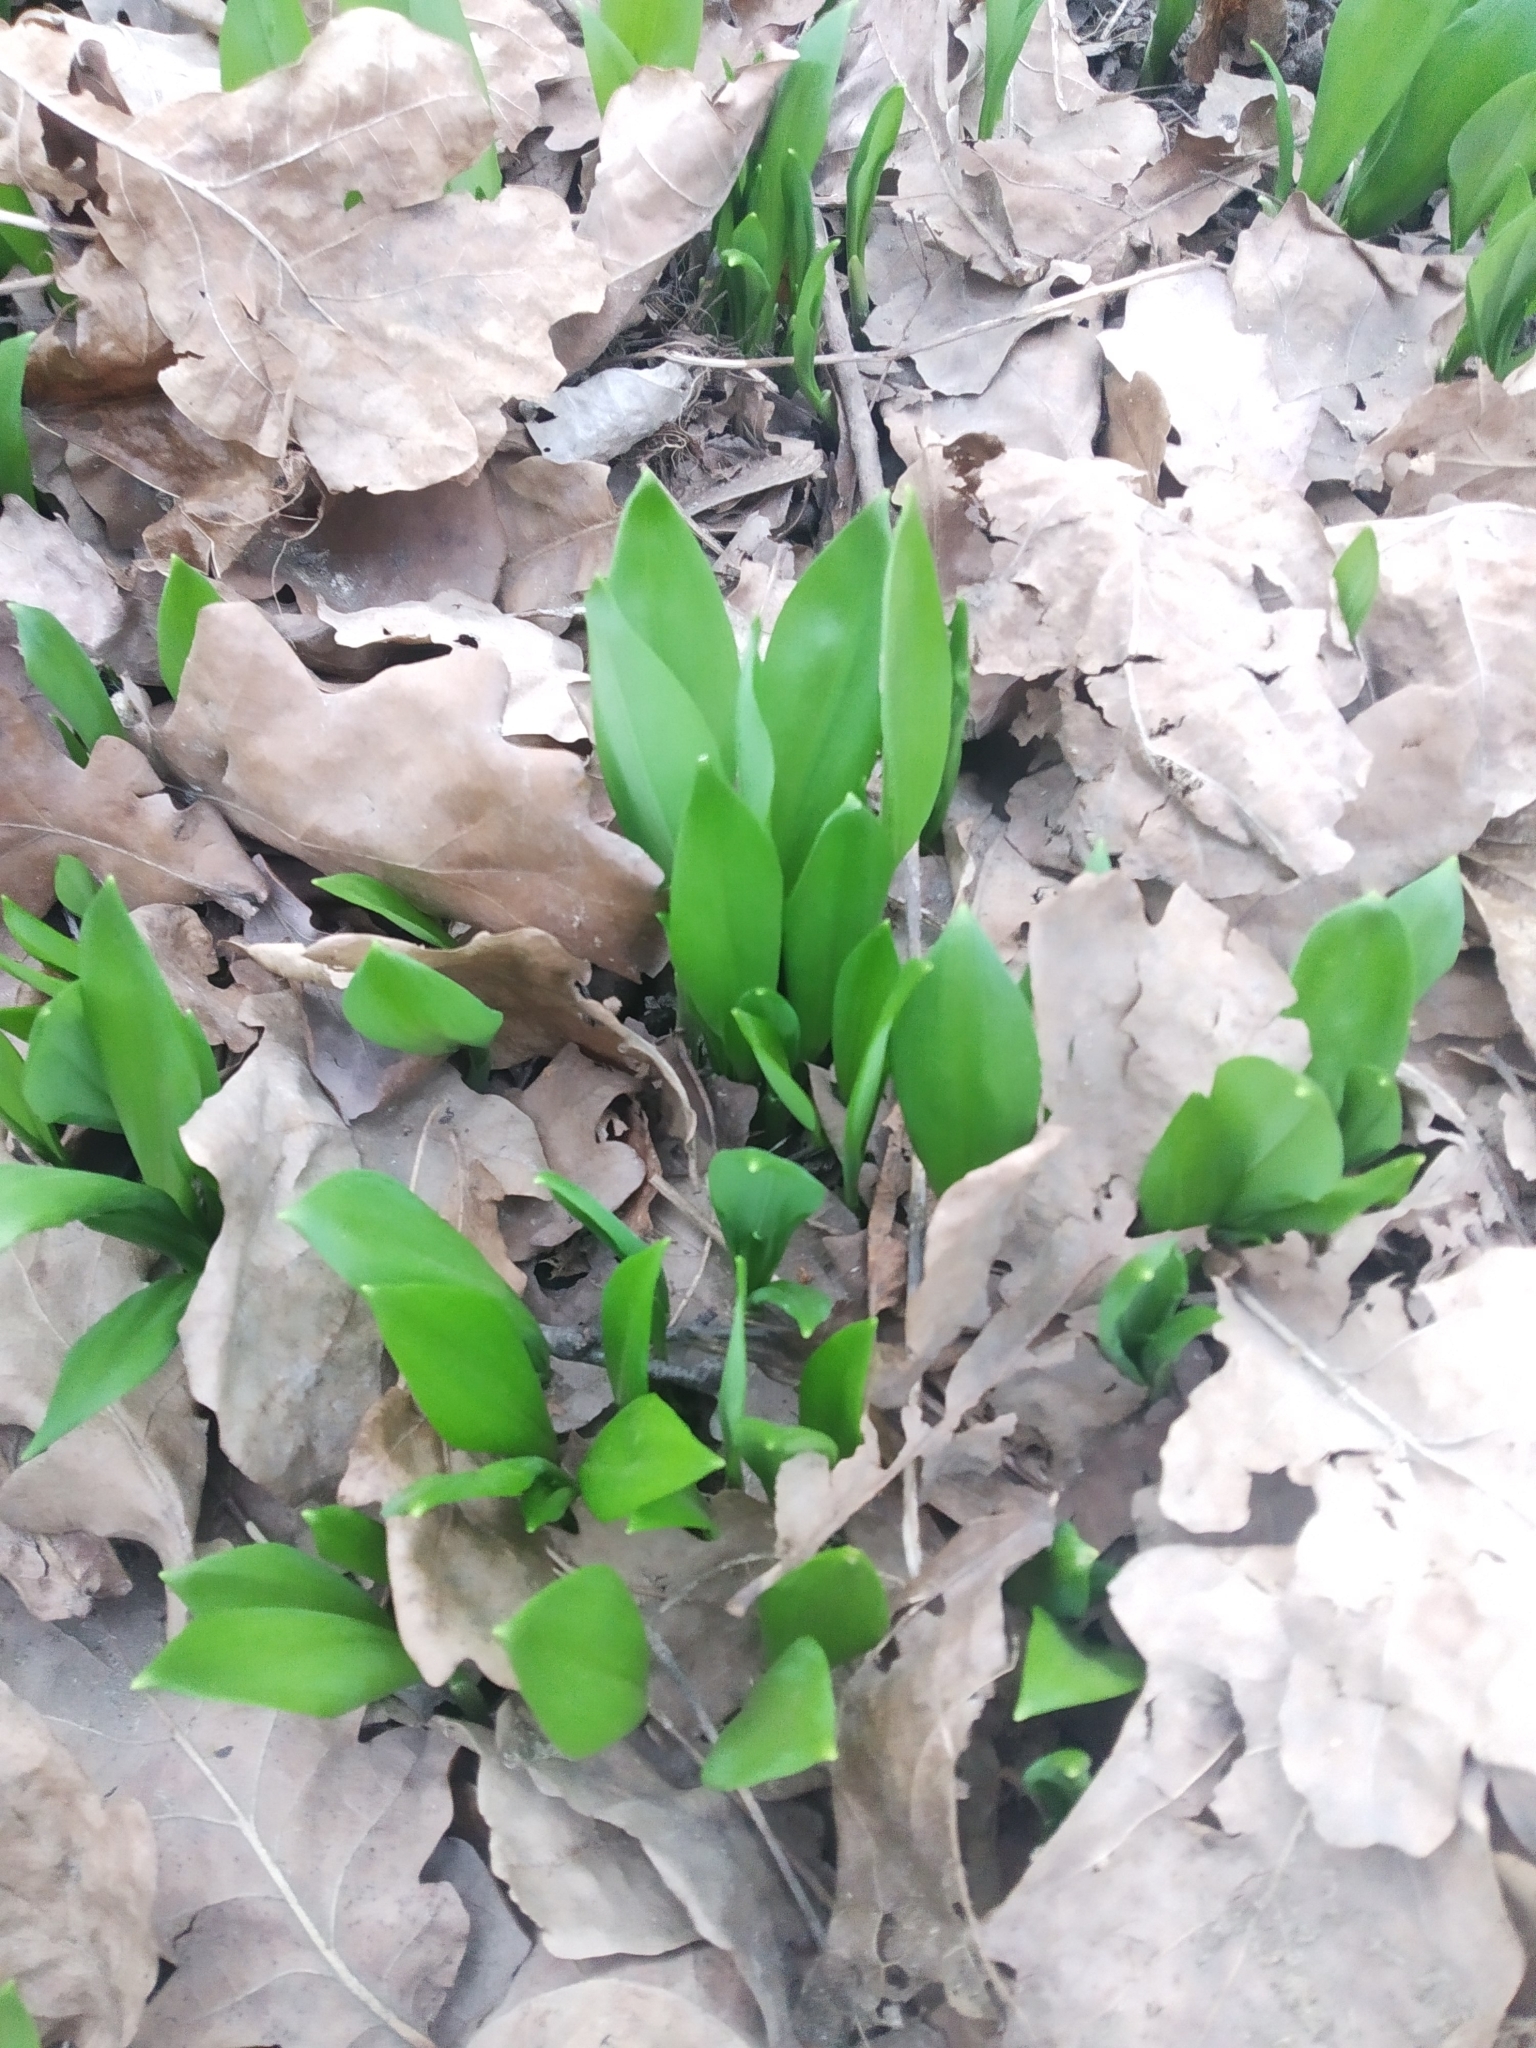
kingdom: Plantae
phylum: Tracheophyta
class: Liliopsida
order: Asparagales
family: Amaryllidaceae
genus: Allium
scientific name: Allium ursinum
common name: Ramsons
